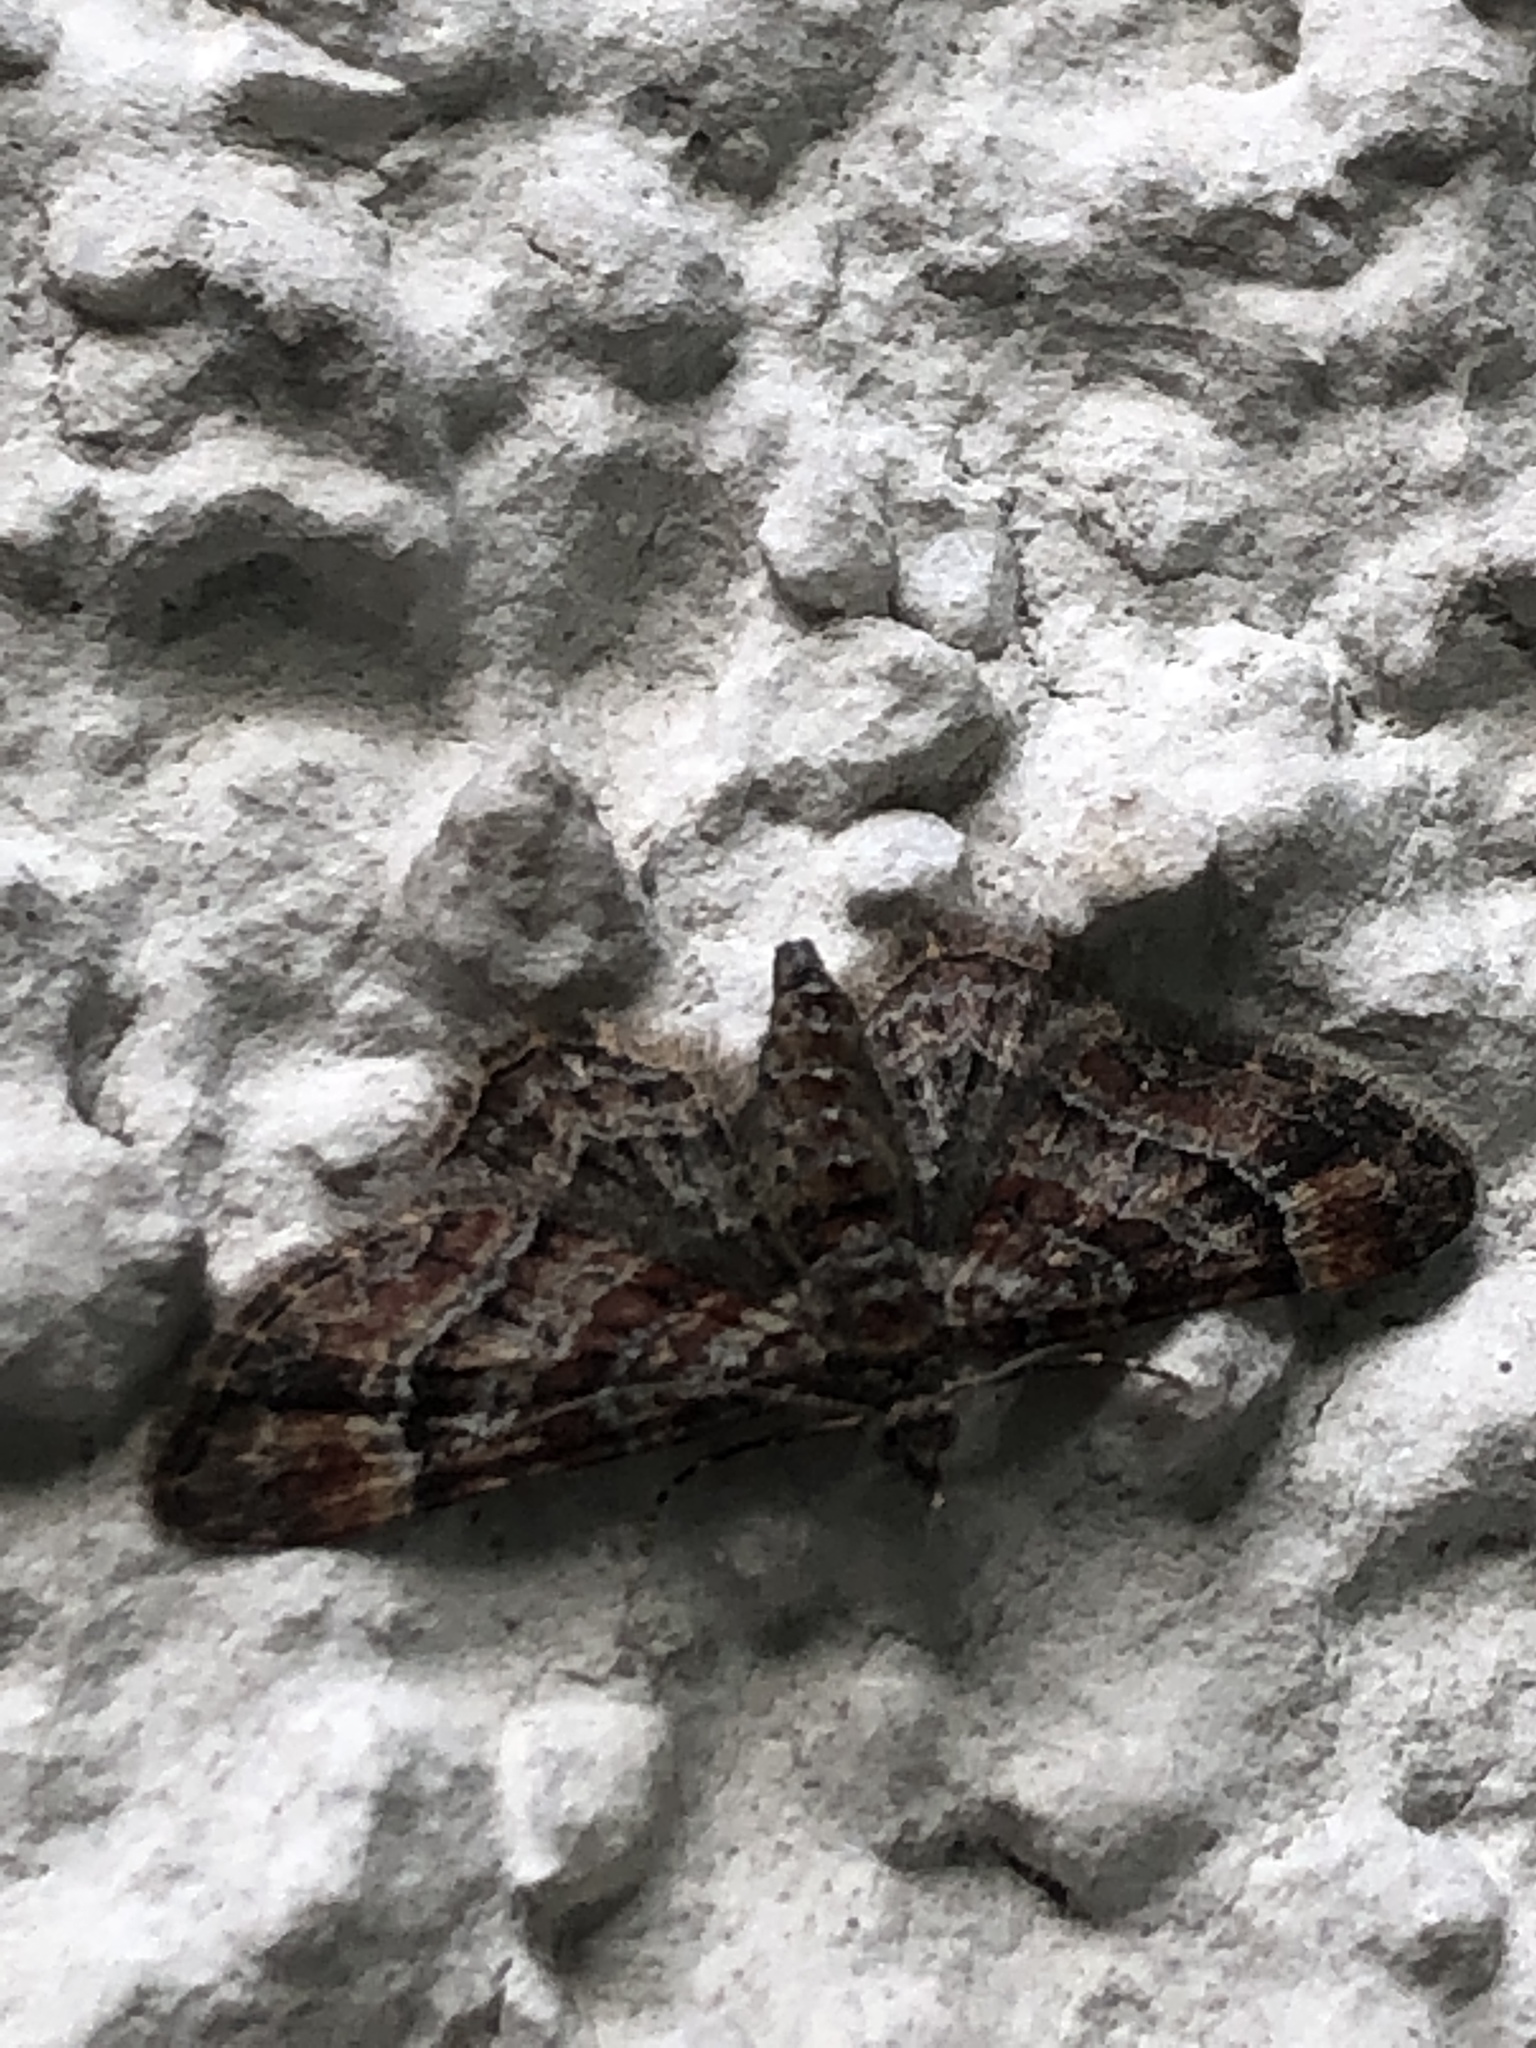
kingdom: Animalia
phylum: Arthropoda
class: Insecta
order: Lepidoptera
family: Geometridae
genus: Gymnoscelis
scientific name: Gymnoscelis rufifasciata
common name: Double-striped pug
